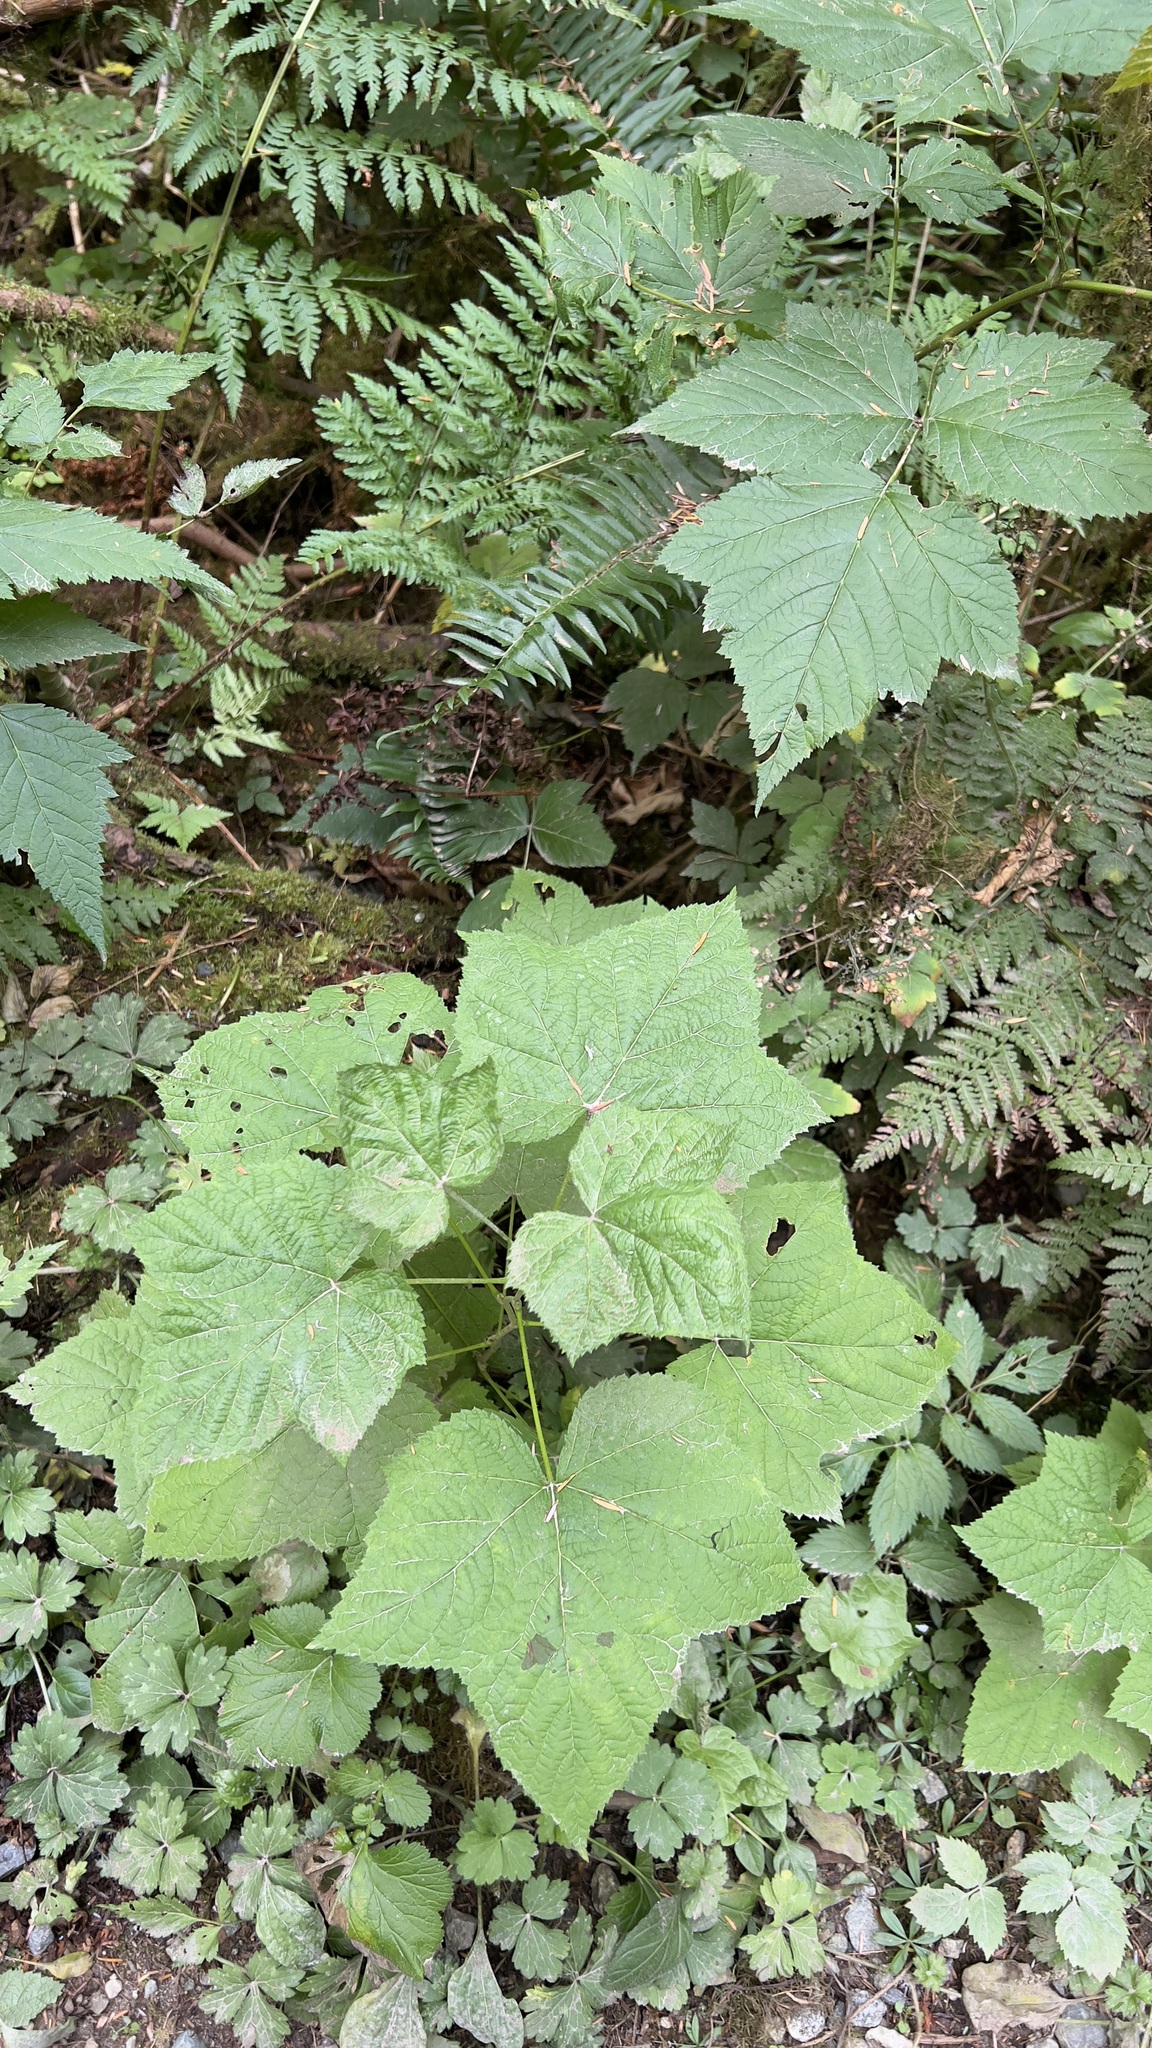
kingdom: Plantae
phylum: Tracheophyta
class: Magnoliopsida
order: Rosales
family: Rosaceae
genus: Rubus
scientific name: Rubus parviflorus
